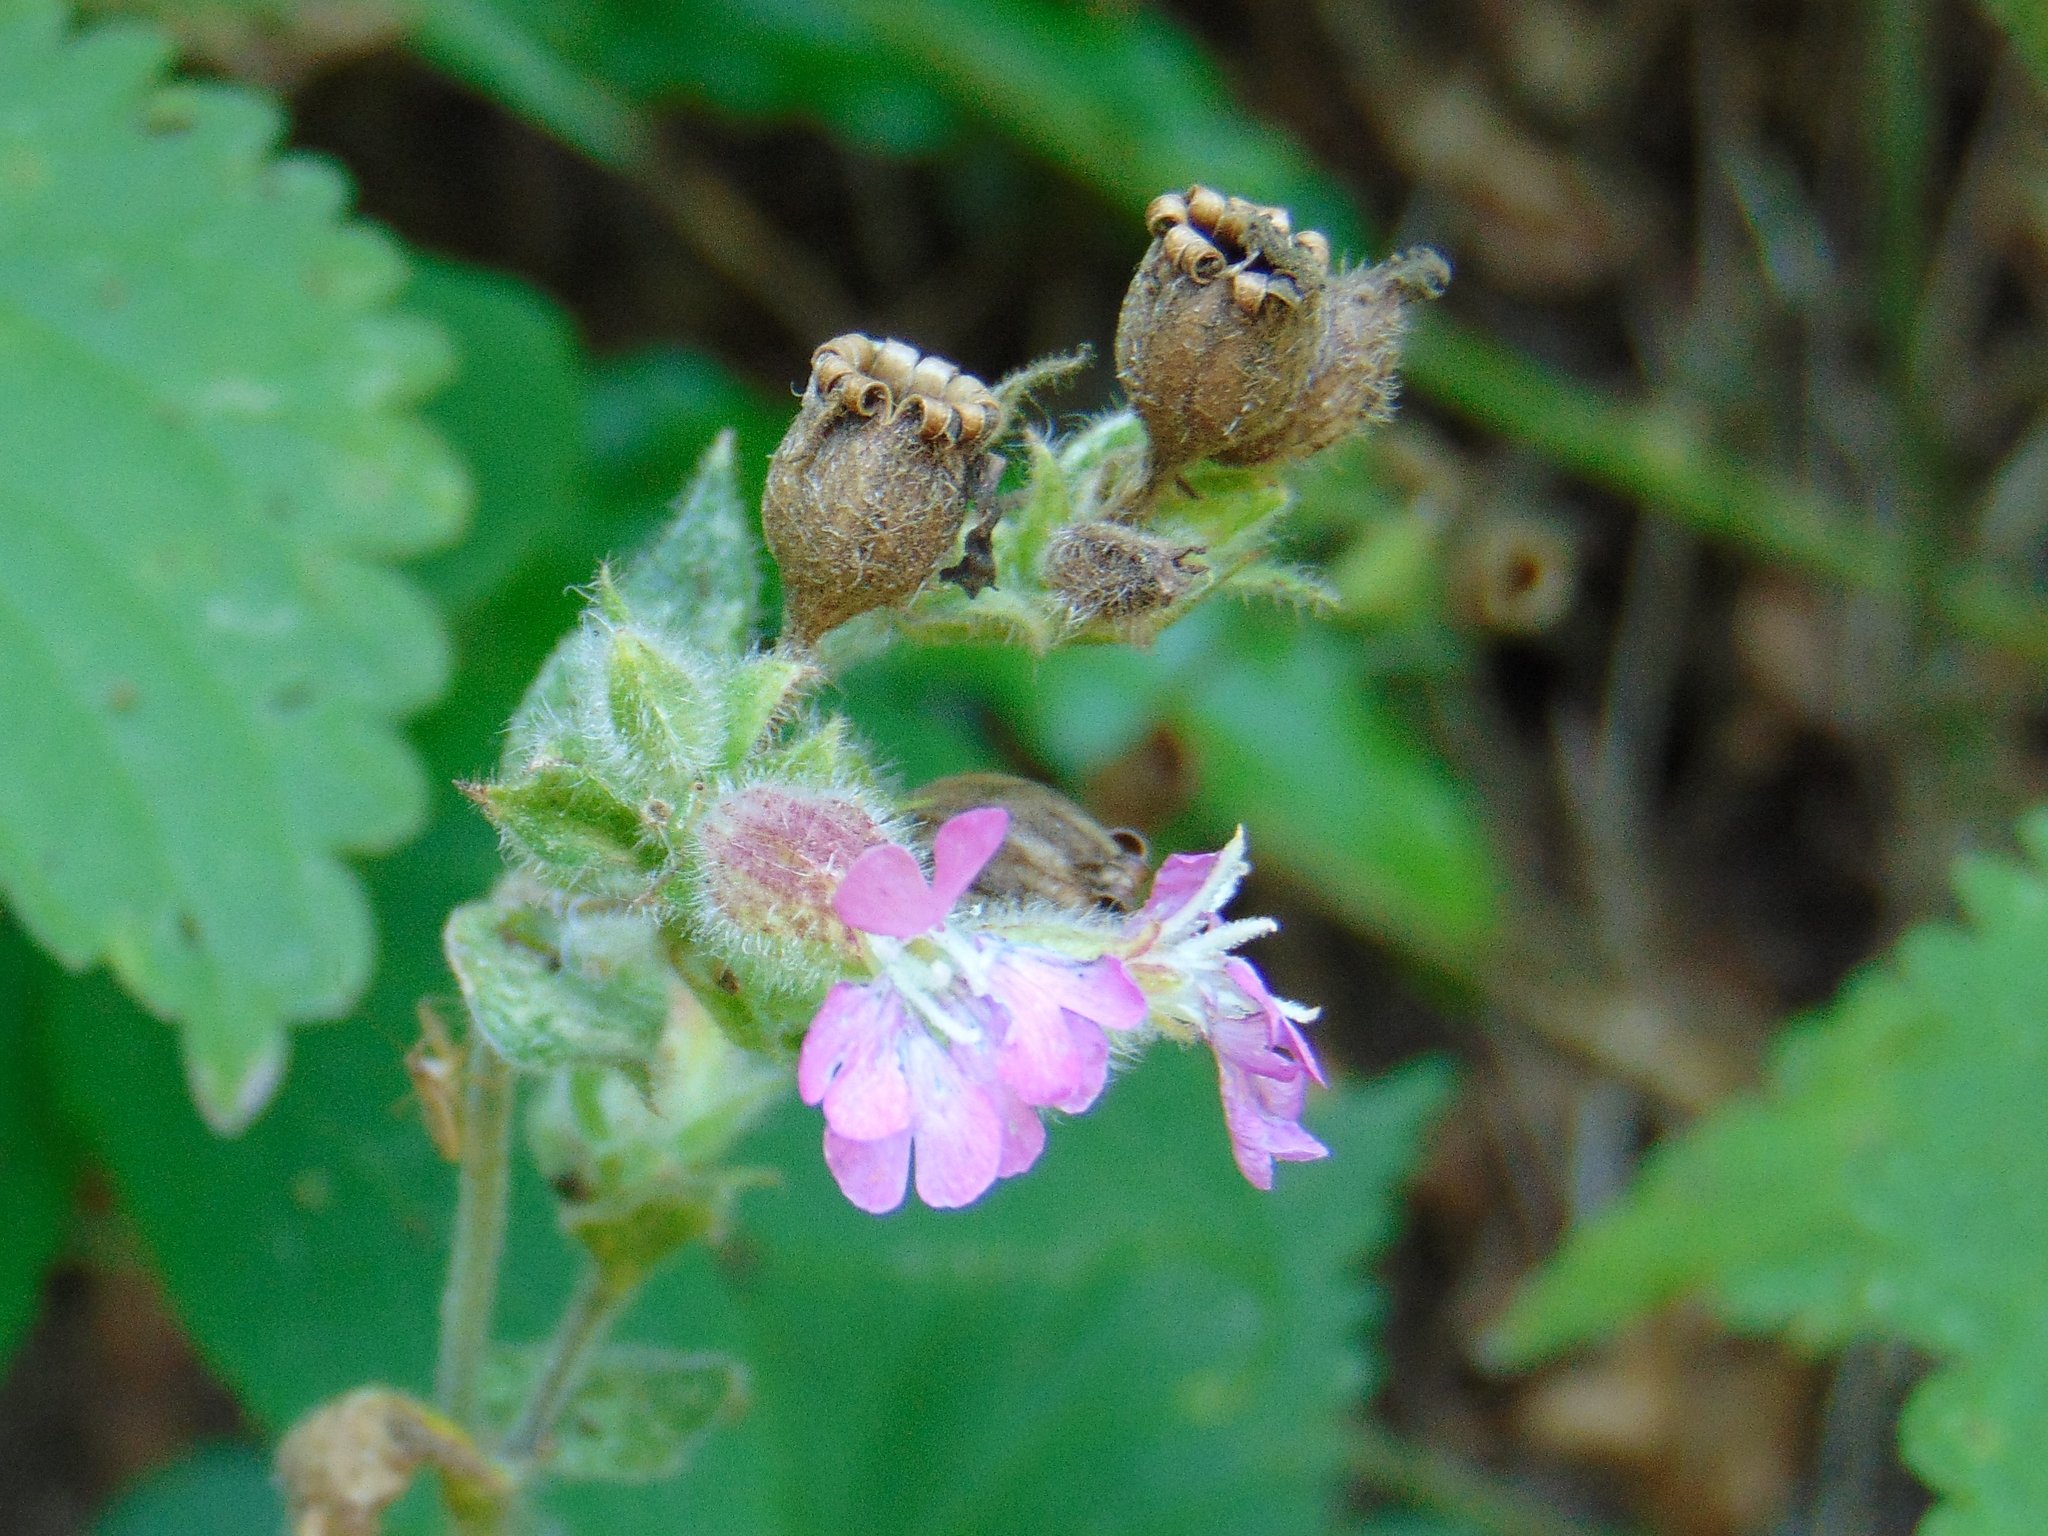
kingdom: Plantae
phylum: Tracheophyta
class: Magnoliopsida
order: Caryophyllales
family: Caryophyllaceae
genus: Silene
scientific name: Silene dioica
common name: Red campion
